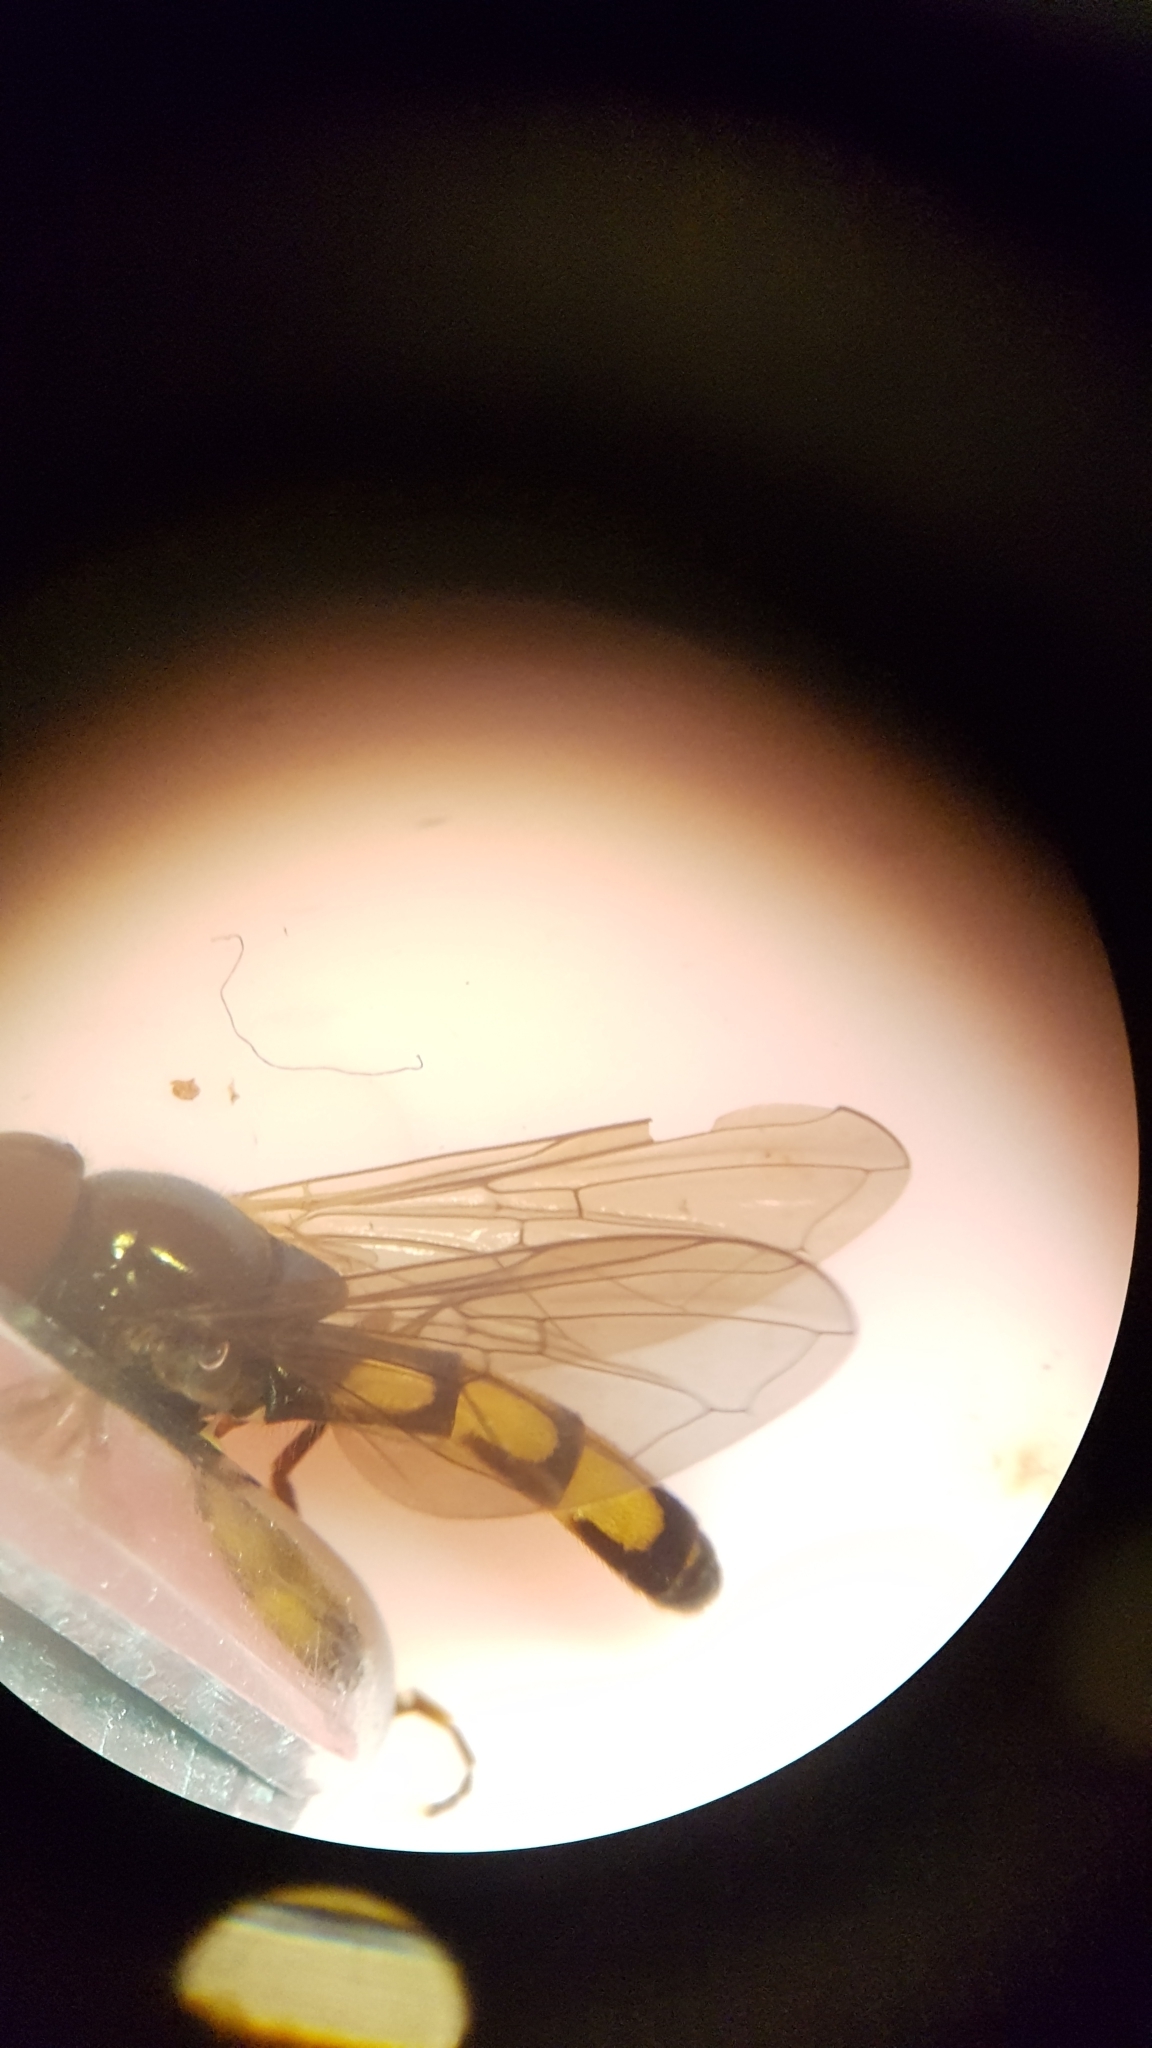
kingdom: Animalia
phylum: Arthropoda
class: Insecta
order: Diptera
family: Syrphidae
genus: Melanostoma
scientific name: Melanostoma fasciatum
